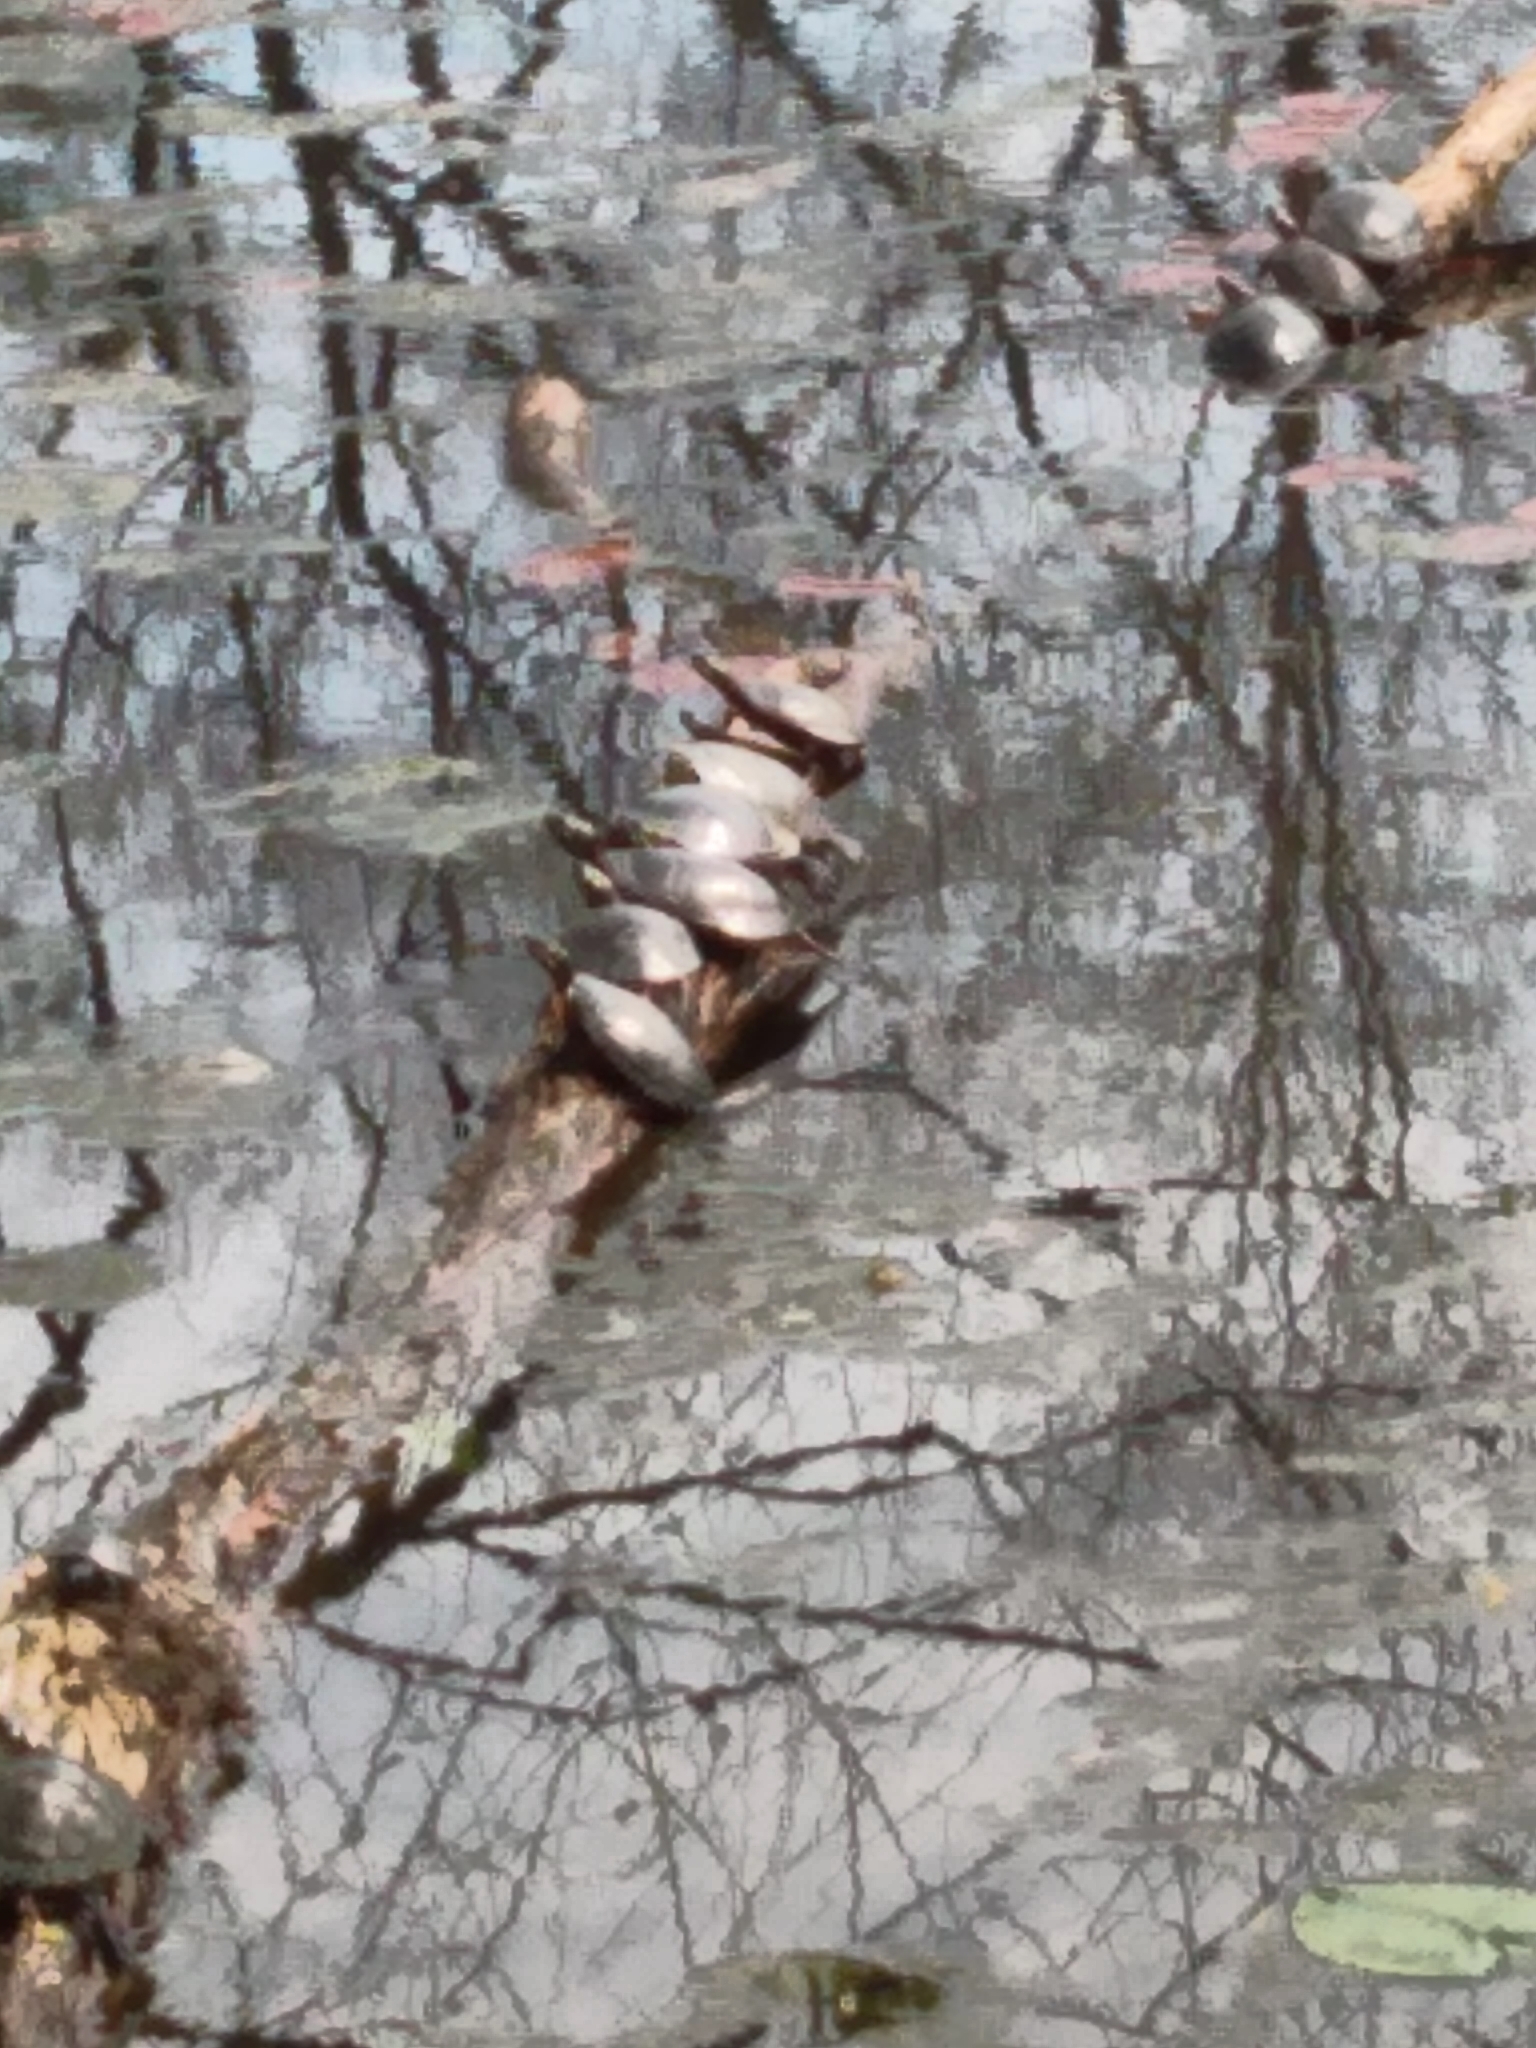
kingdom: Animalia
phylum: Chordata
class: Testudines
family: Emydidae
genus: Chrysemys
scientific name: Chrysemys picta
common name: Painted turtle
